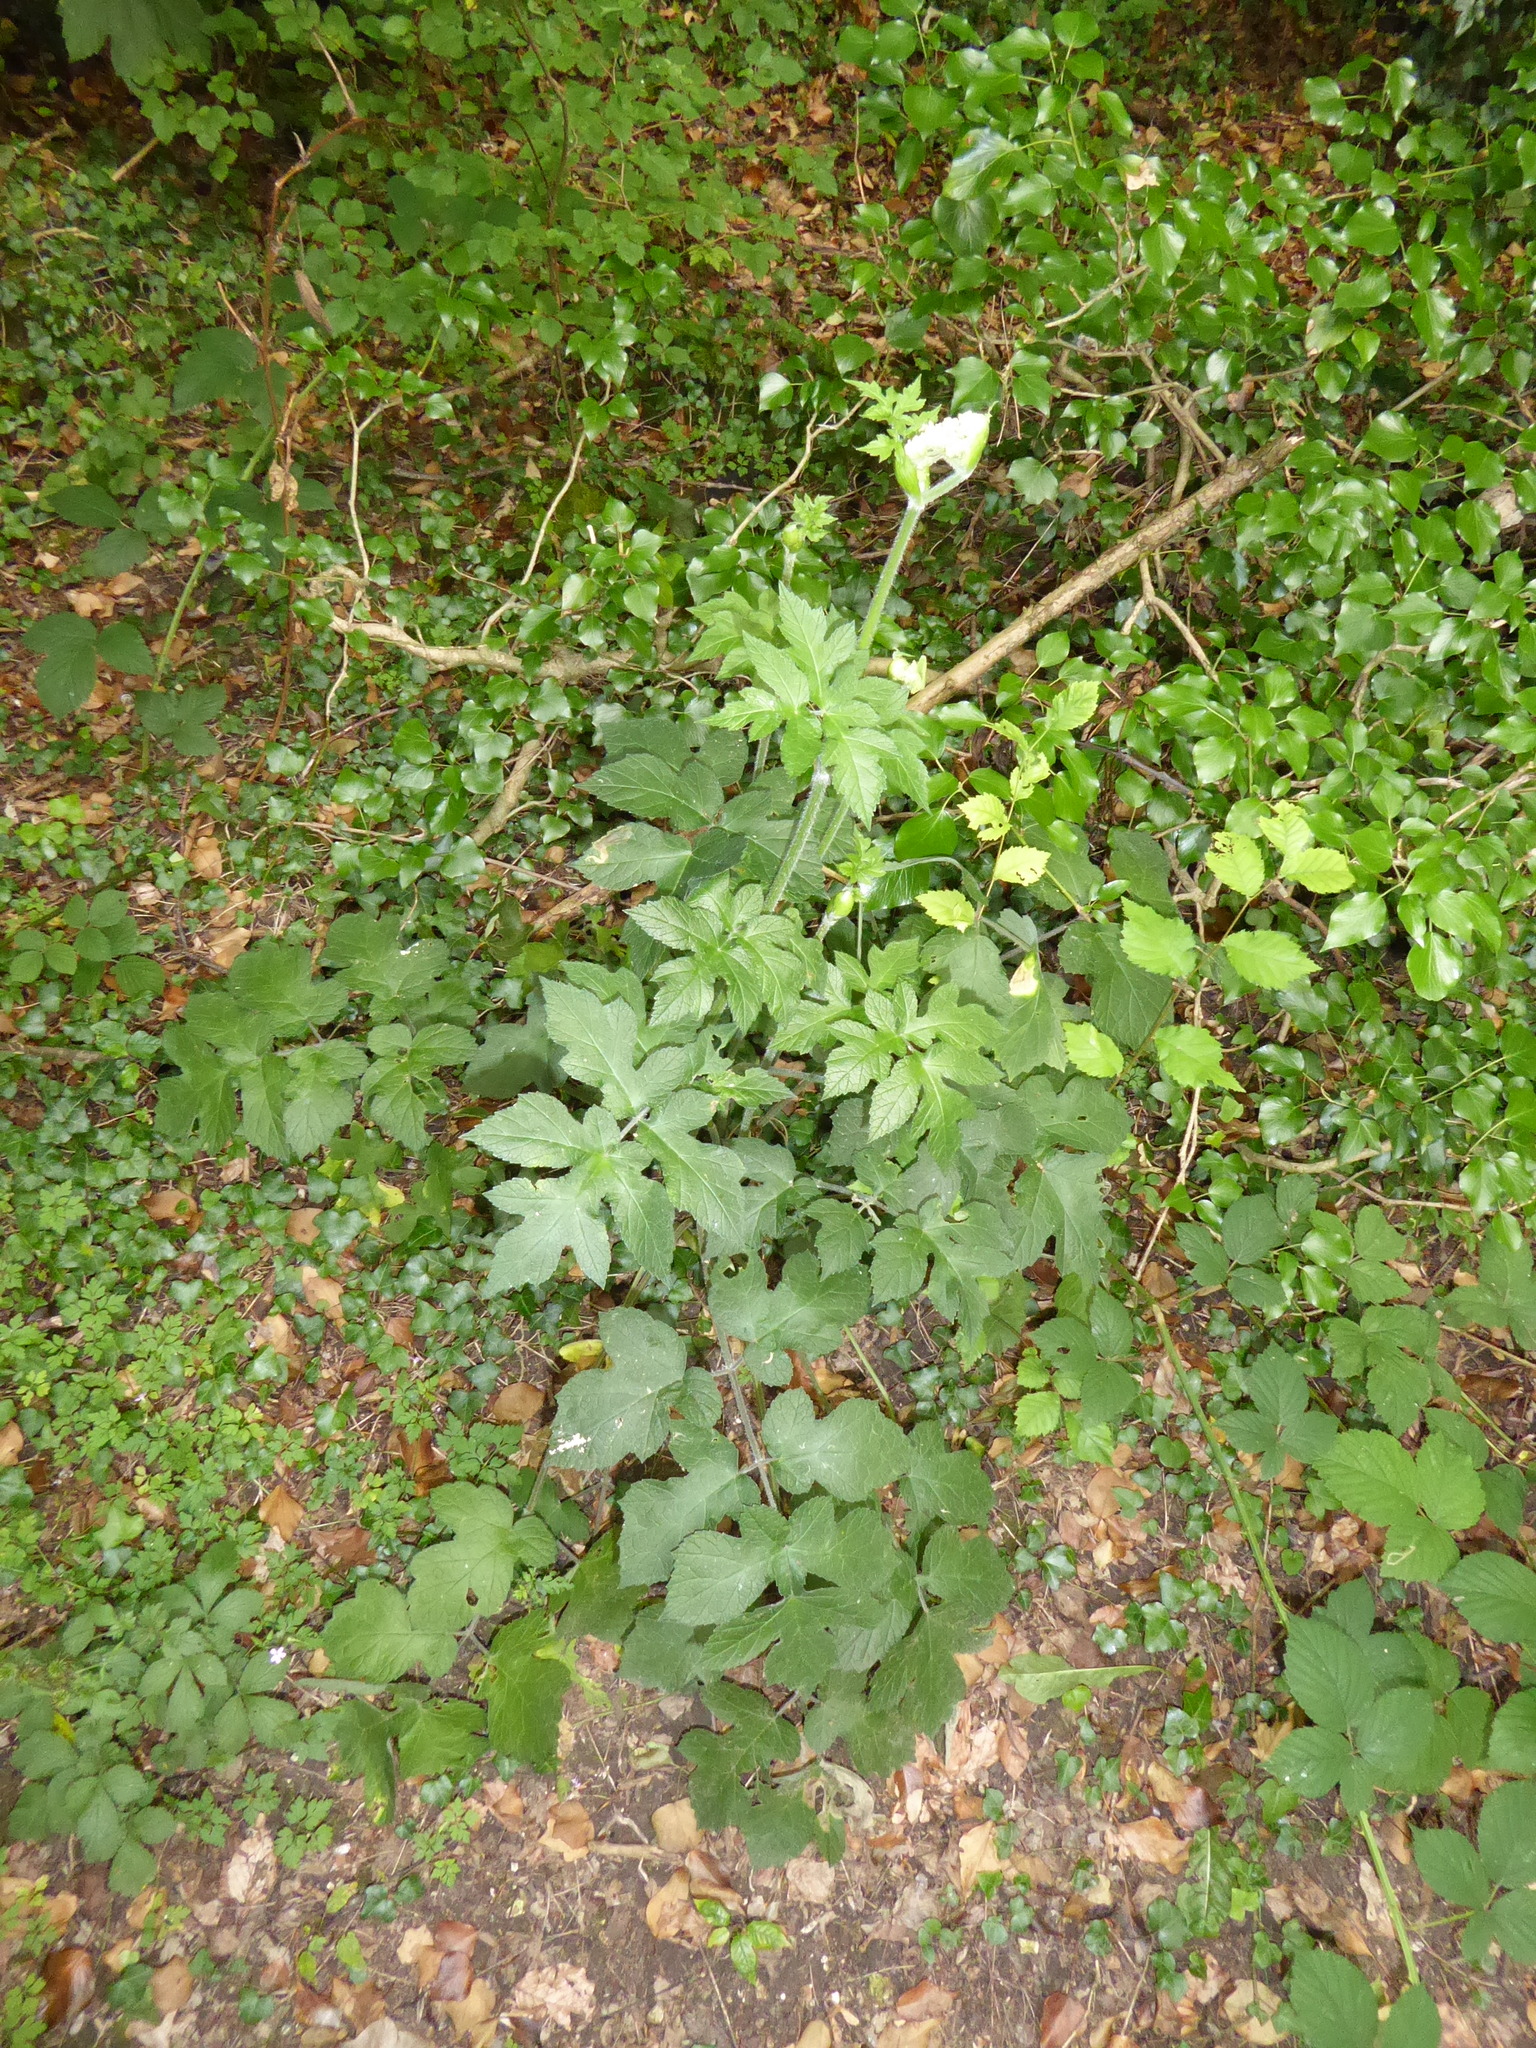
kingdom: Plantae
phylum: Tracheophyta
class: Magnoliopsida
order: Apiales
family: Apiaceae
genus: Heracleum
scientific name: Heracleum sphondylium
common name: Hogweed
